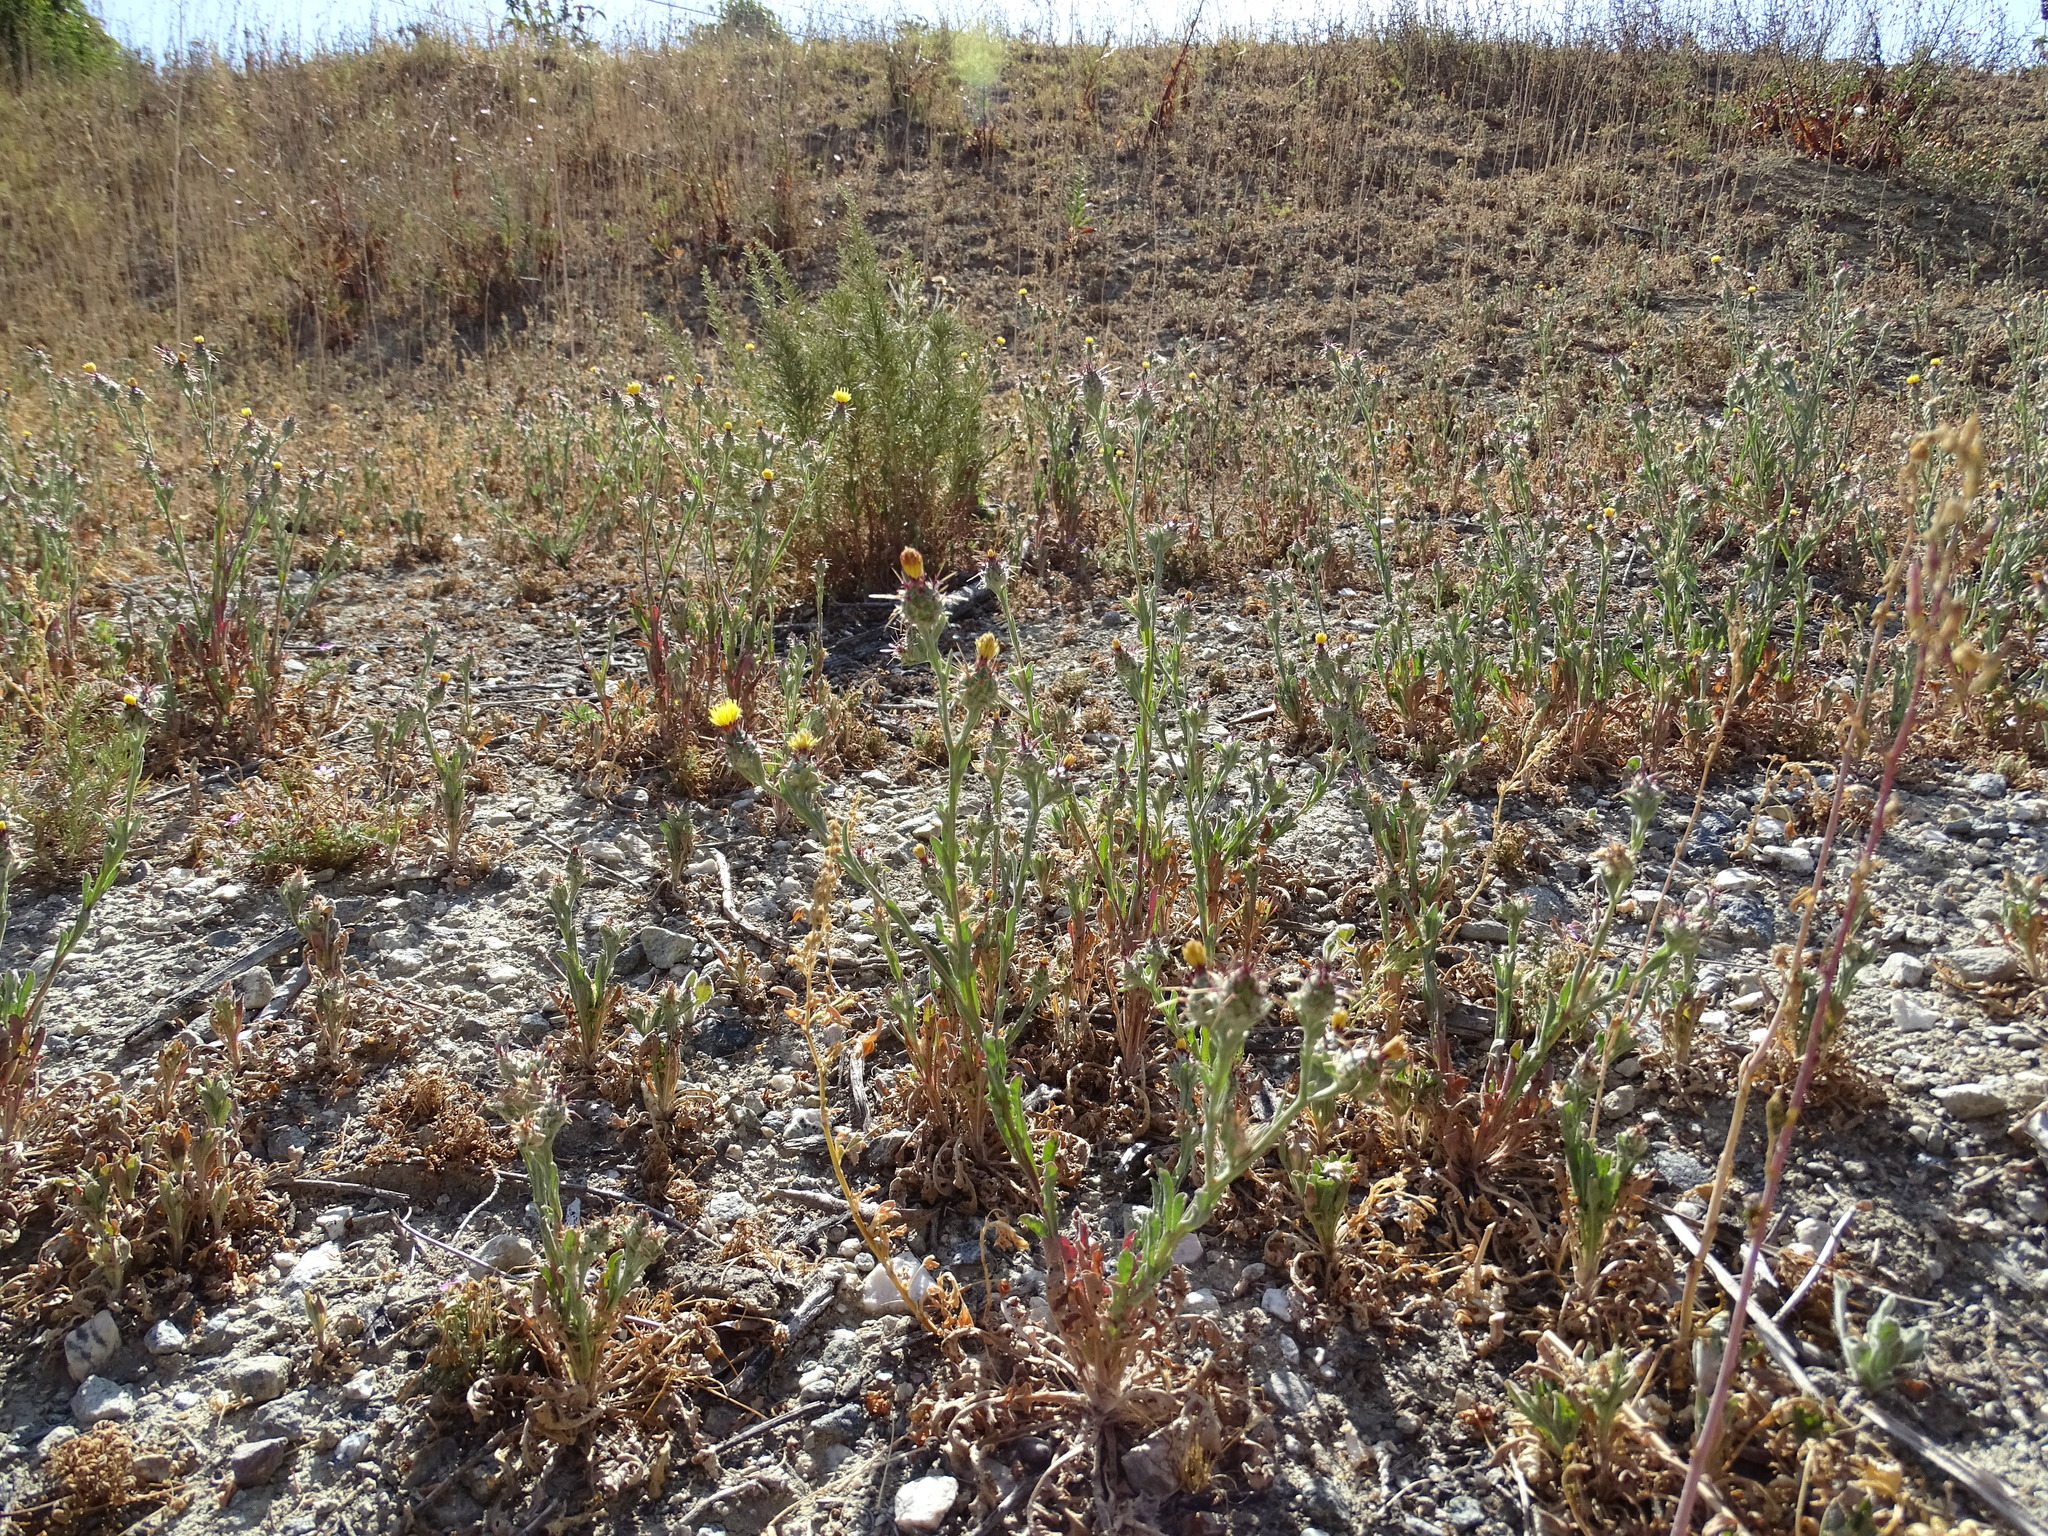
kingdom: Plantae
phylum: Tracheophyta
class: Magnoliopsida
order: Asterales
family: Asteraceae
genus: Centaurea
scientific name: Centaurea melitensis
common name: Maltese star-thistle
